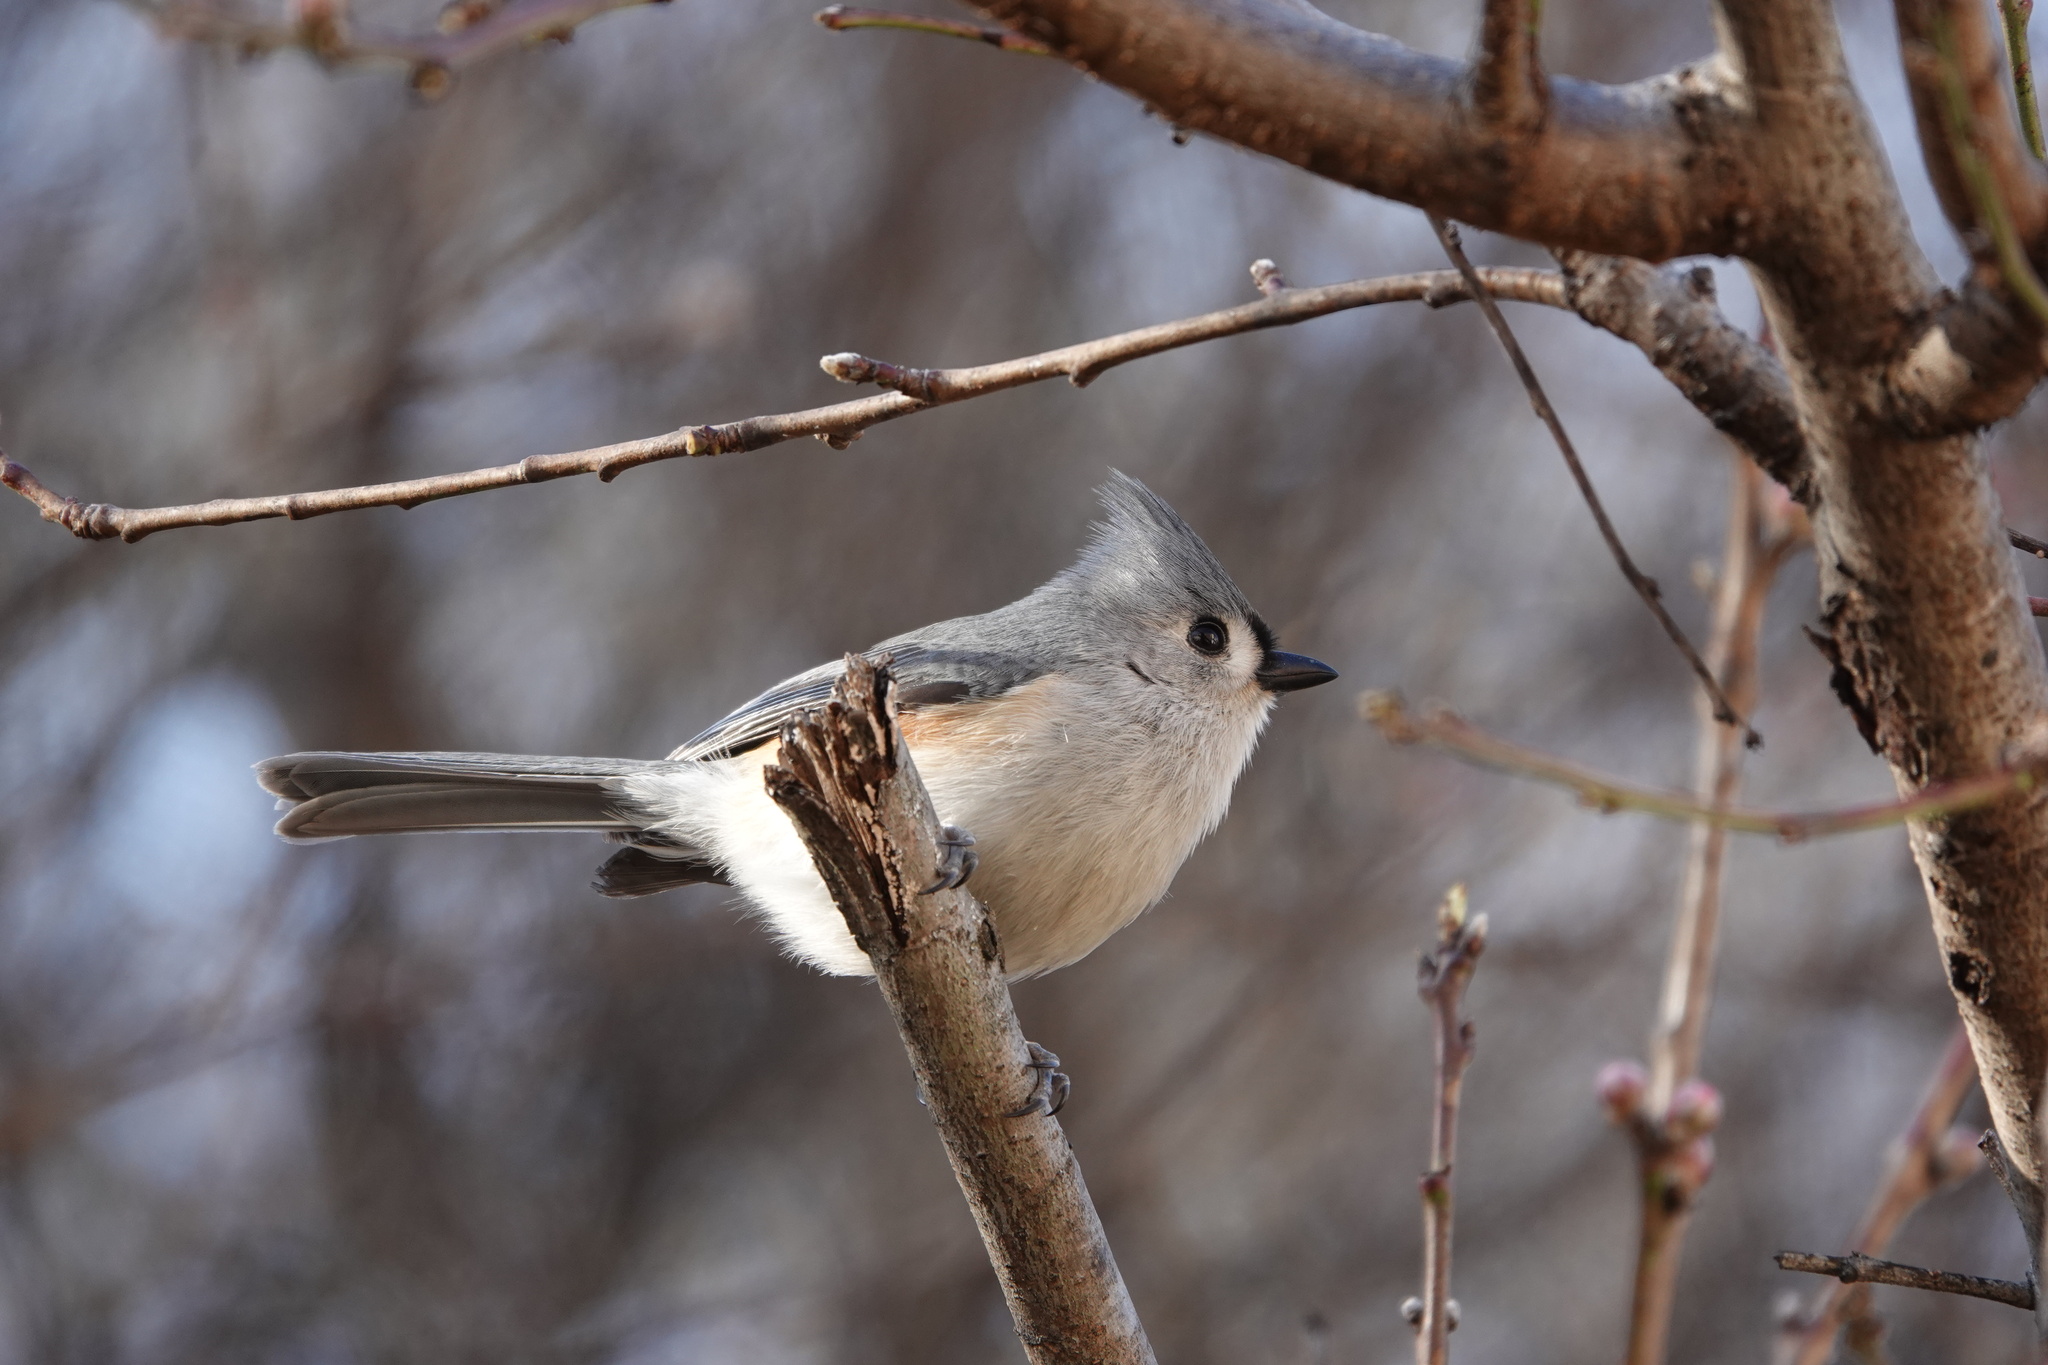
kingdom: Animalia
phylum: Chordata
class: Aves
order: Passeriformes
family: Paridae
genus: Baeolophus
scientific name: Baeolophus bicolor
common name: Tufted titmouse
